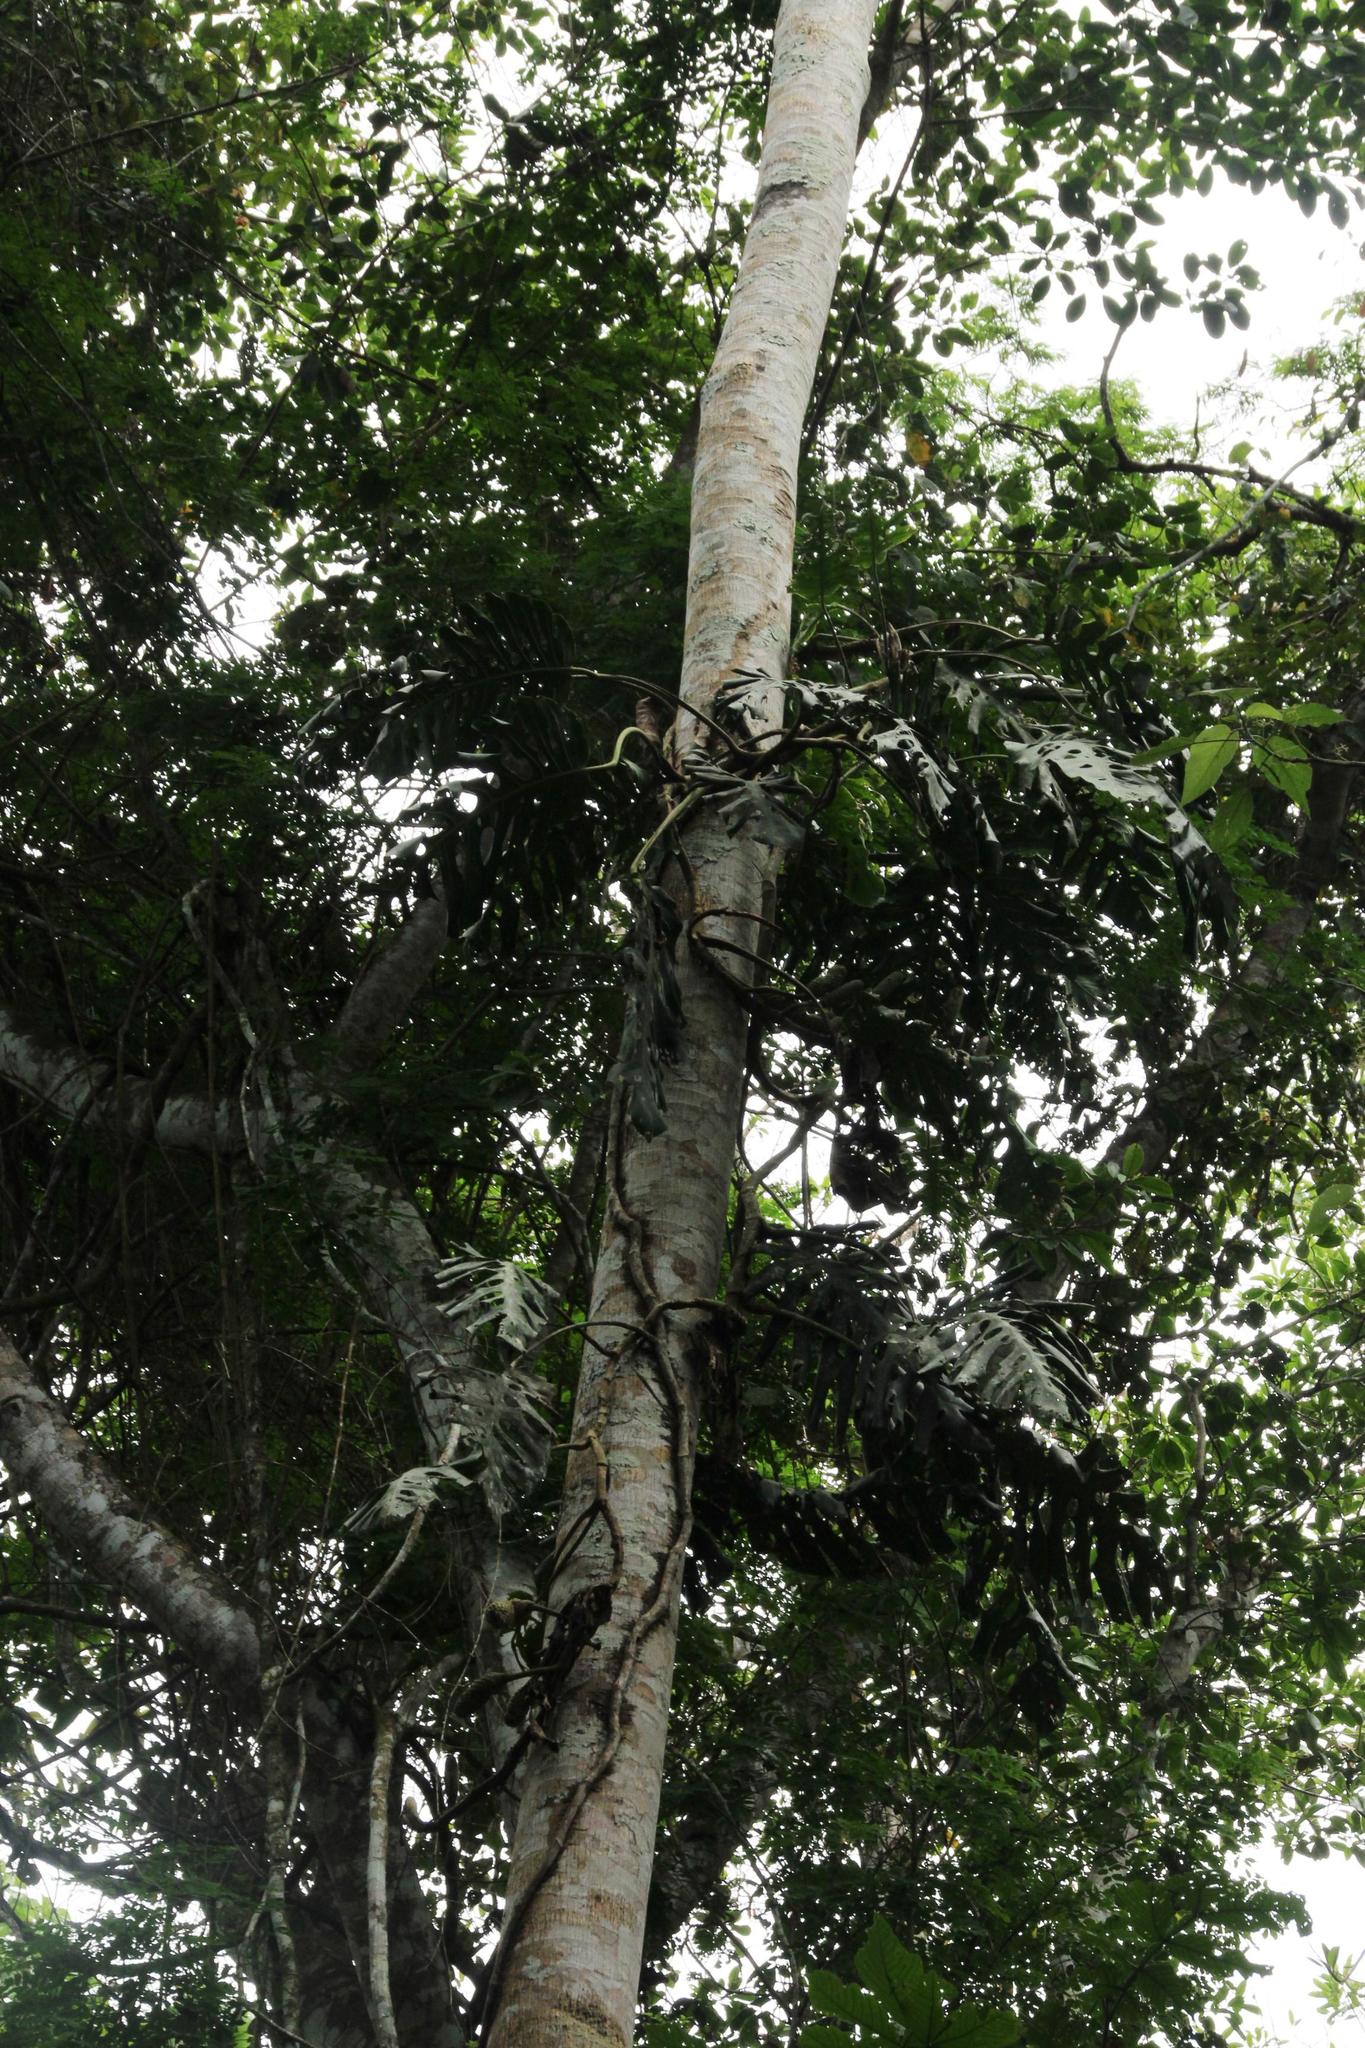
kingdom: Plantae
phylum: Tracheophyta
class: Liliopsida
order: Alismatales
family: Araceae
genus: Monstera
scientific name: Monstera dubia
